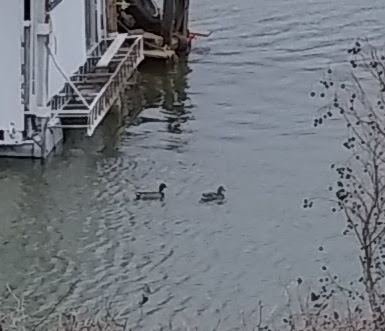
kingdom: Animalia
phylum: Chordata
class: Aves
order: Anseriformes
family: Anatidae
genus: Anas
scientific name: Anas platyrhynchos
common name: Mallard
